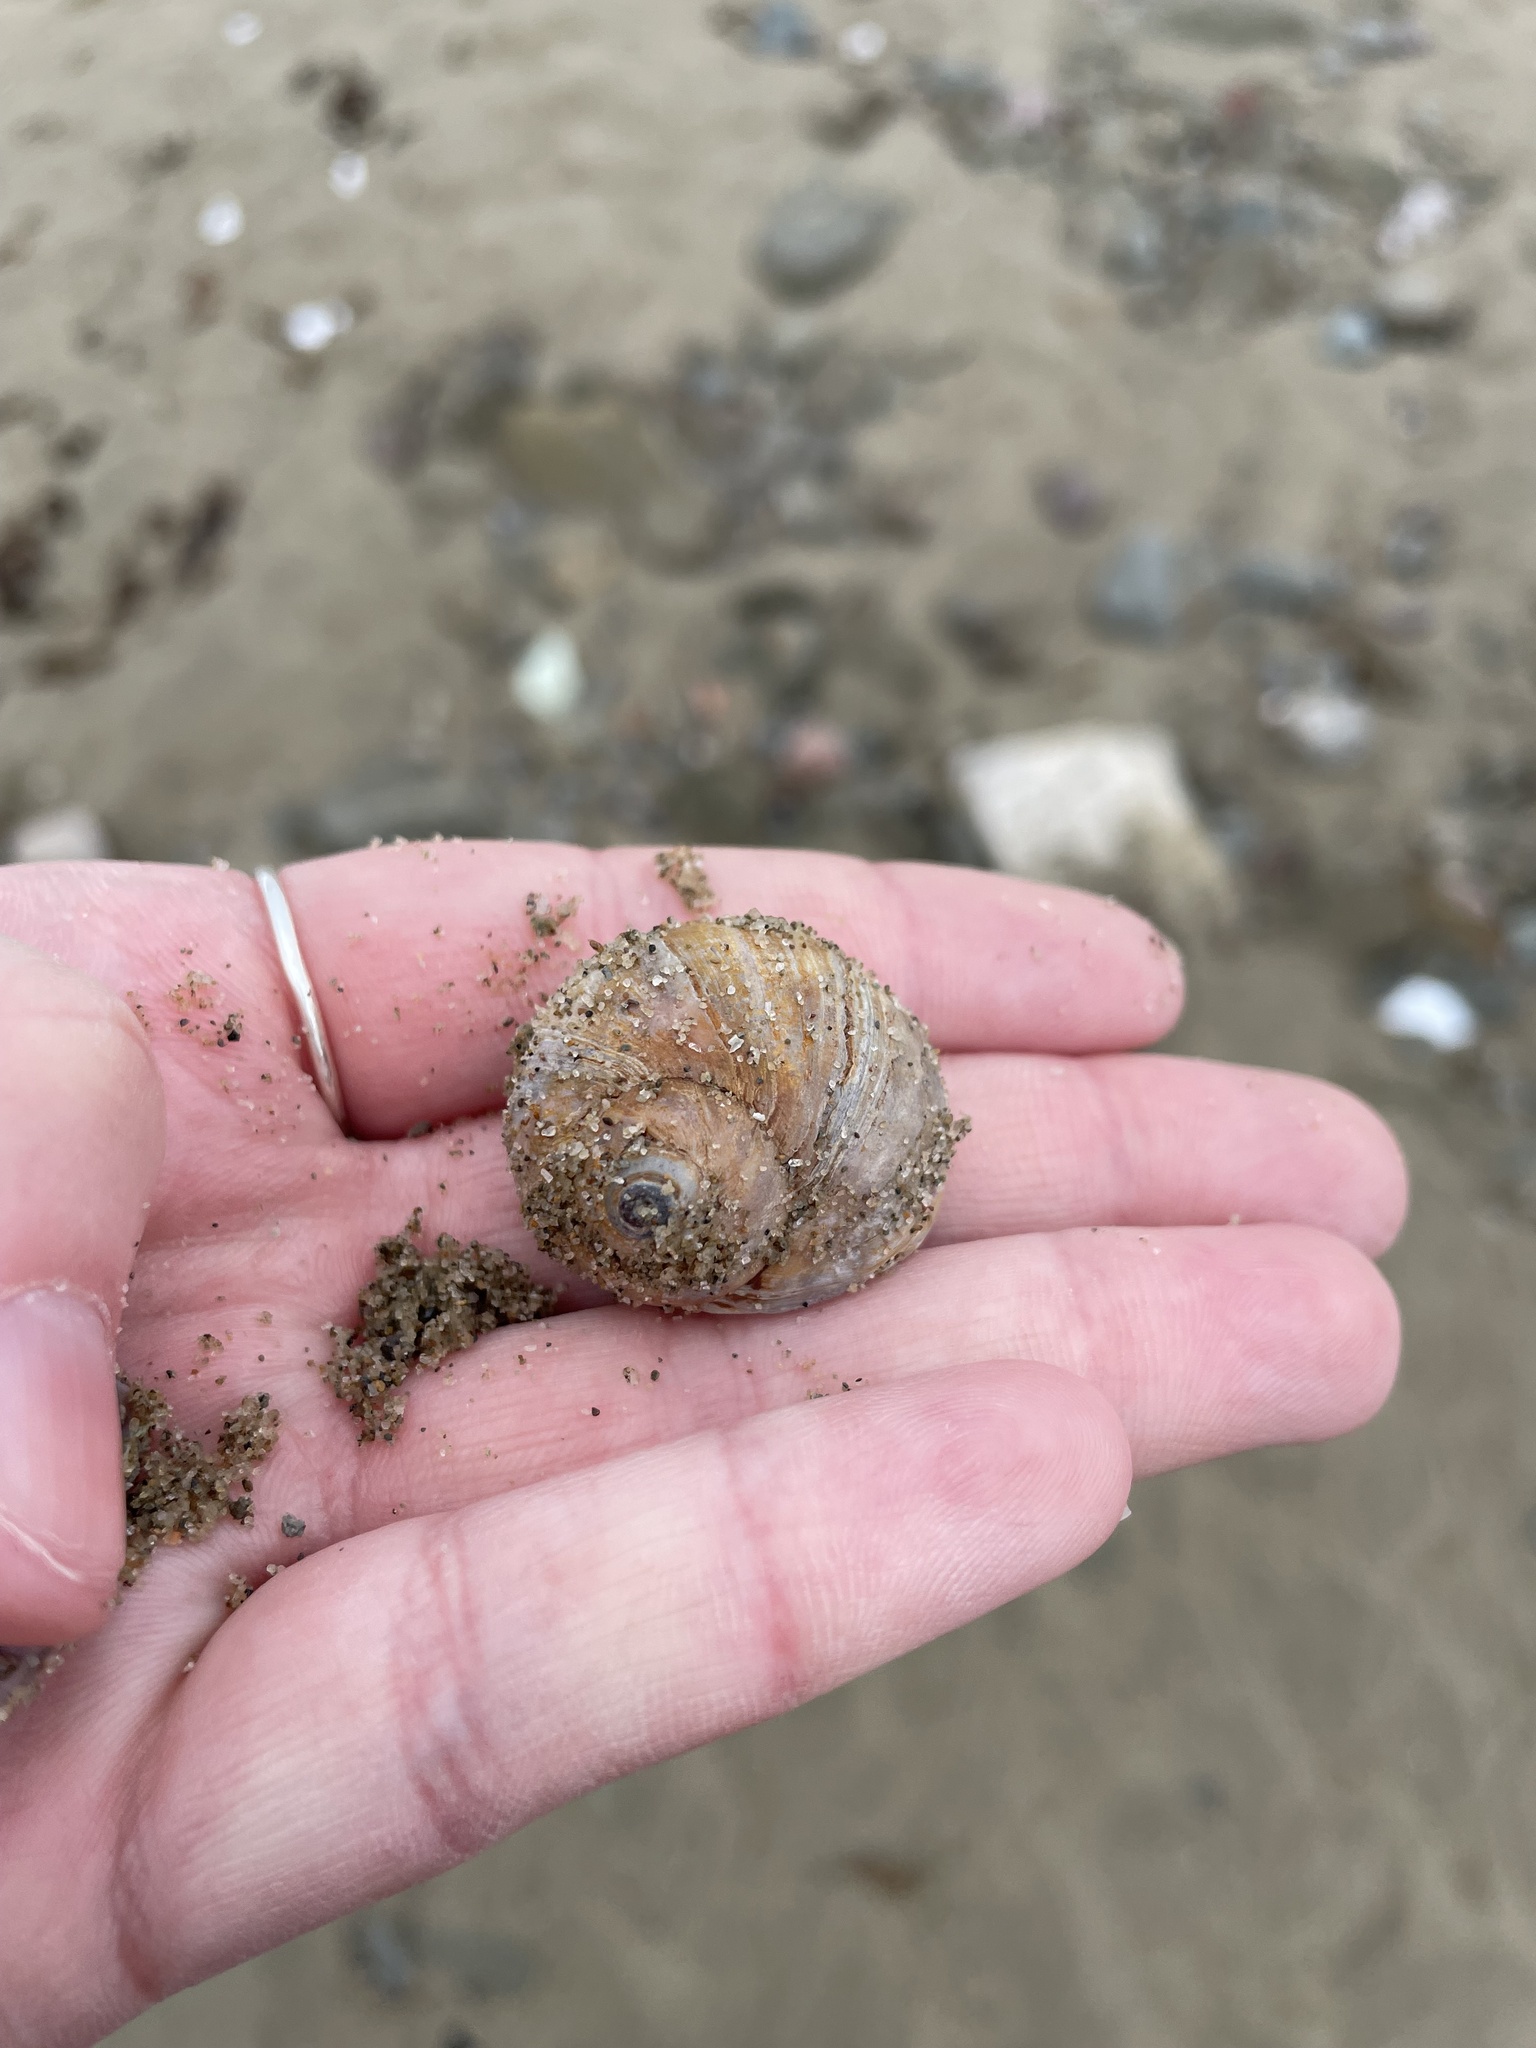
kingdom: Animalia
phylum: Mollusca
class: Gastropoda
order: Littorinimorpha
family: Naticidae
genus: Euspira
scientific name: Euspira heros
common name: Common northern moonsnail
